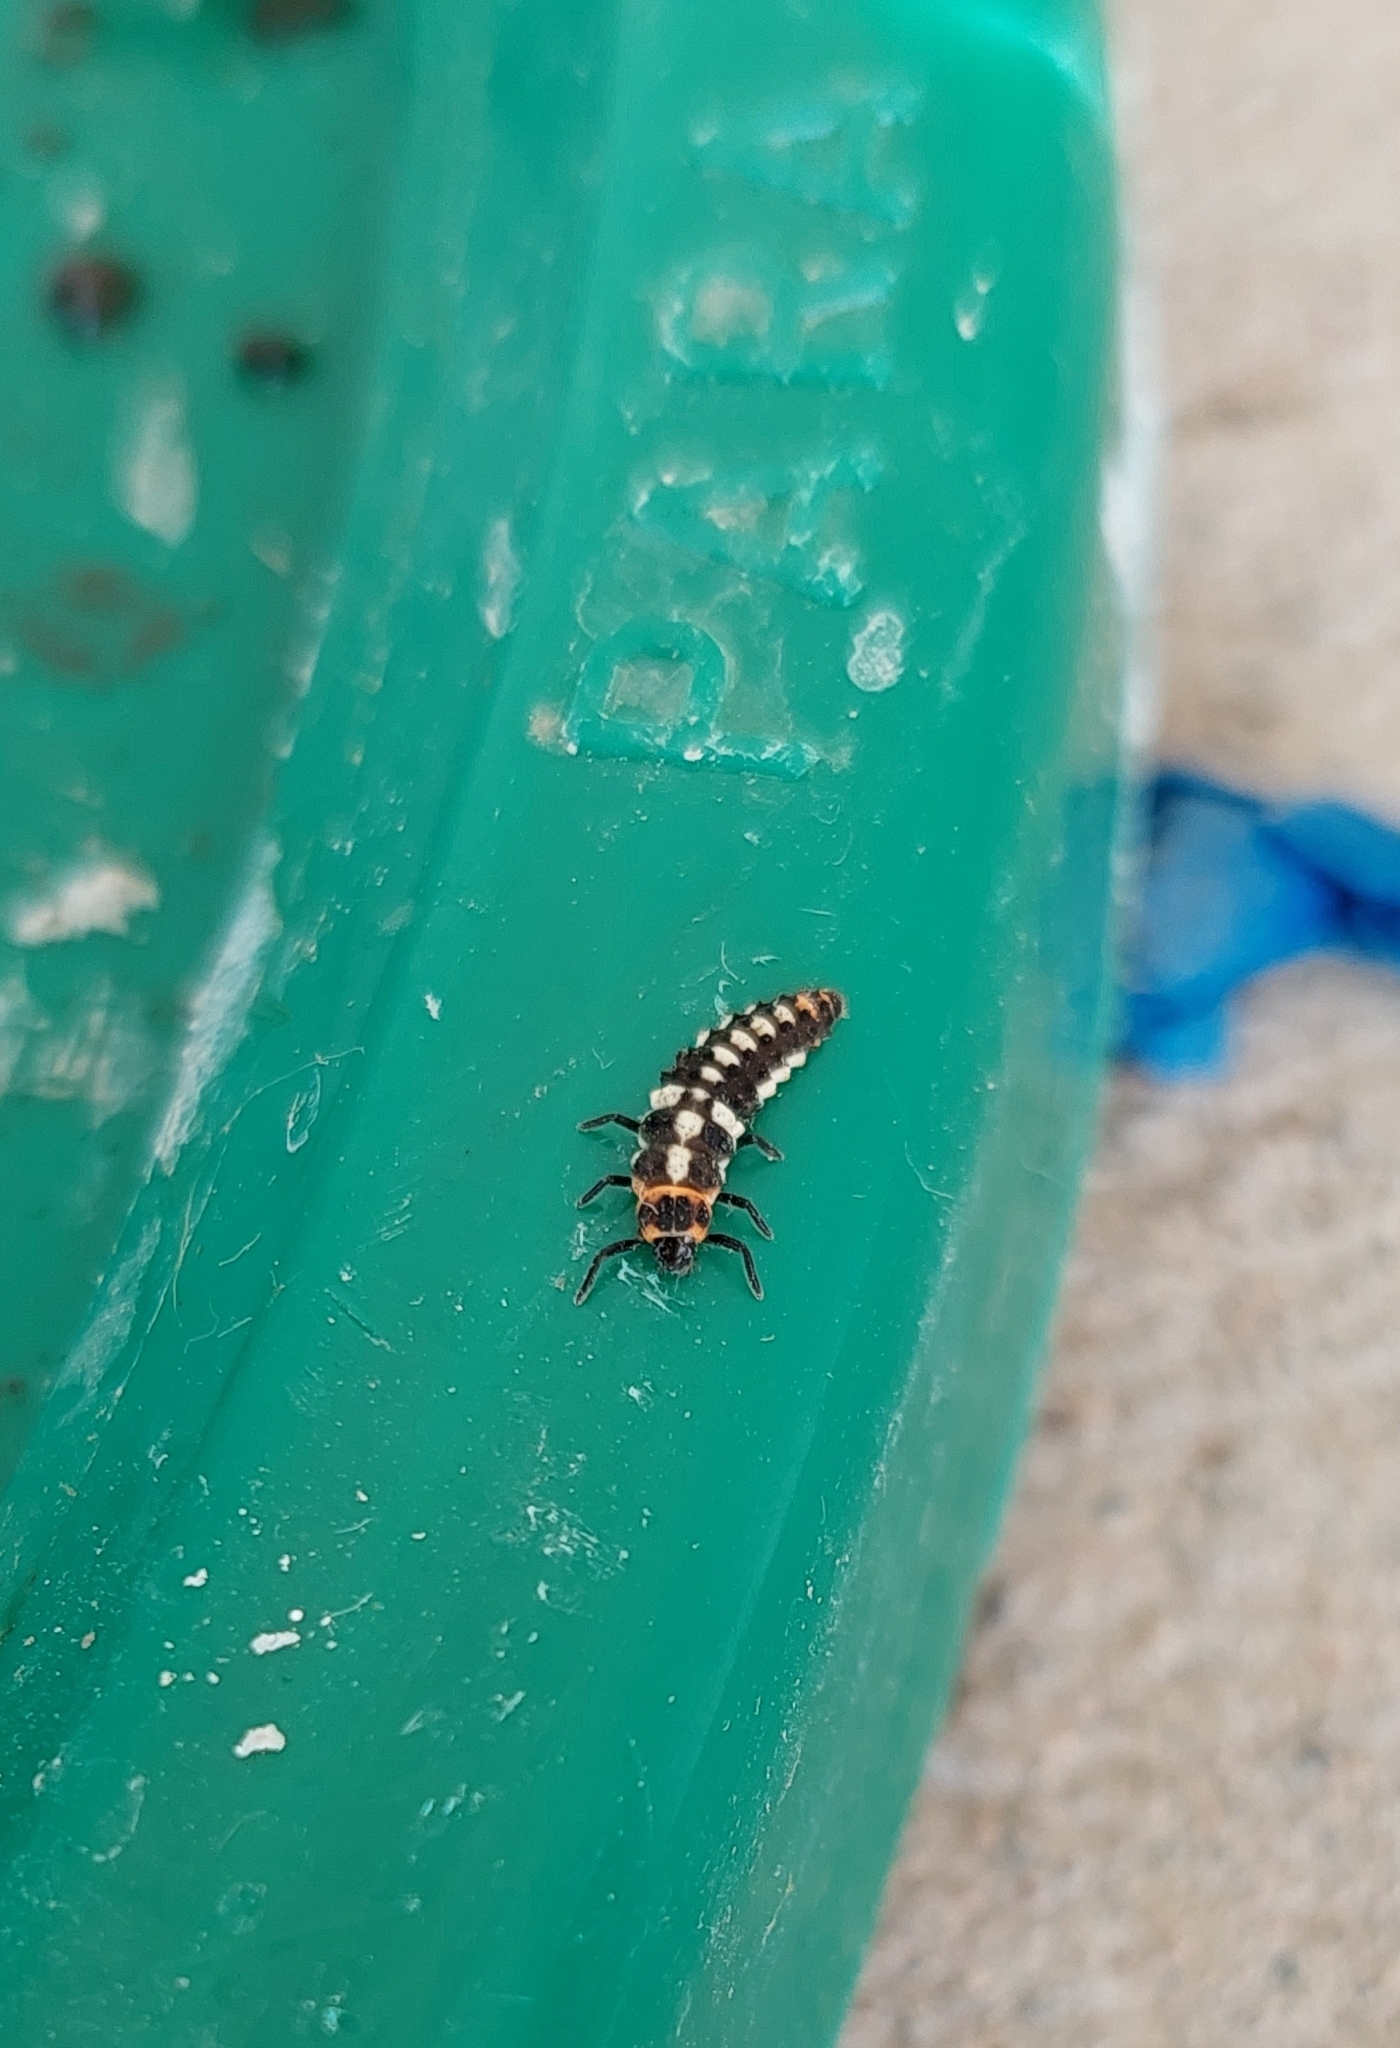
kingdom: Animalia
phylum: Arthropoda
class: Insecta
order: Coleoptera
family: Coccinellidae
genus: Eriopis
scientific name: Eriopis connexa
